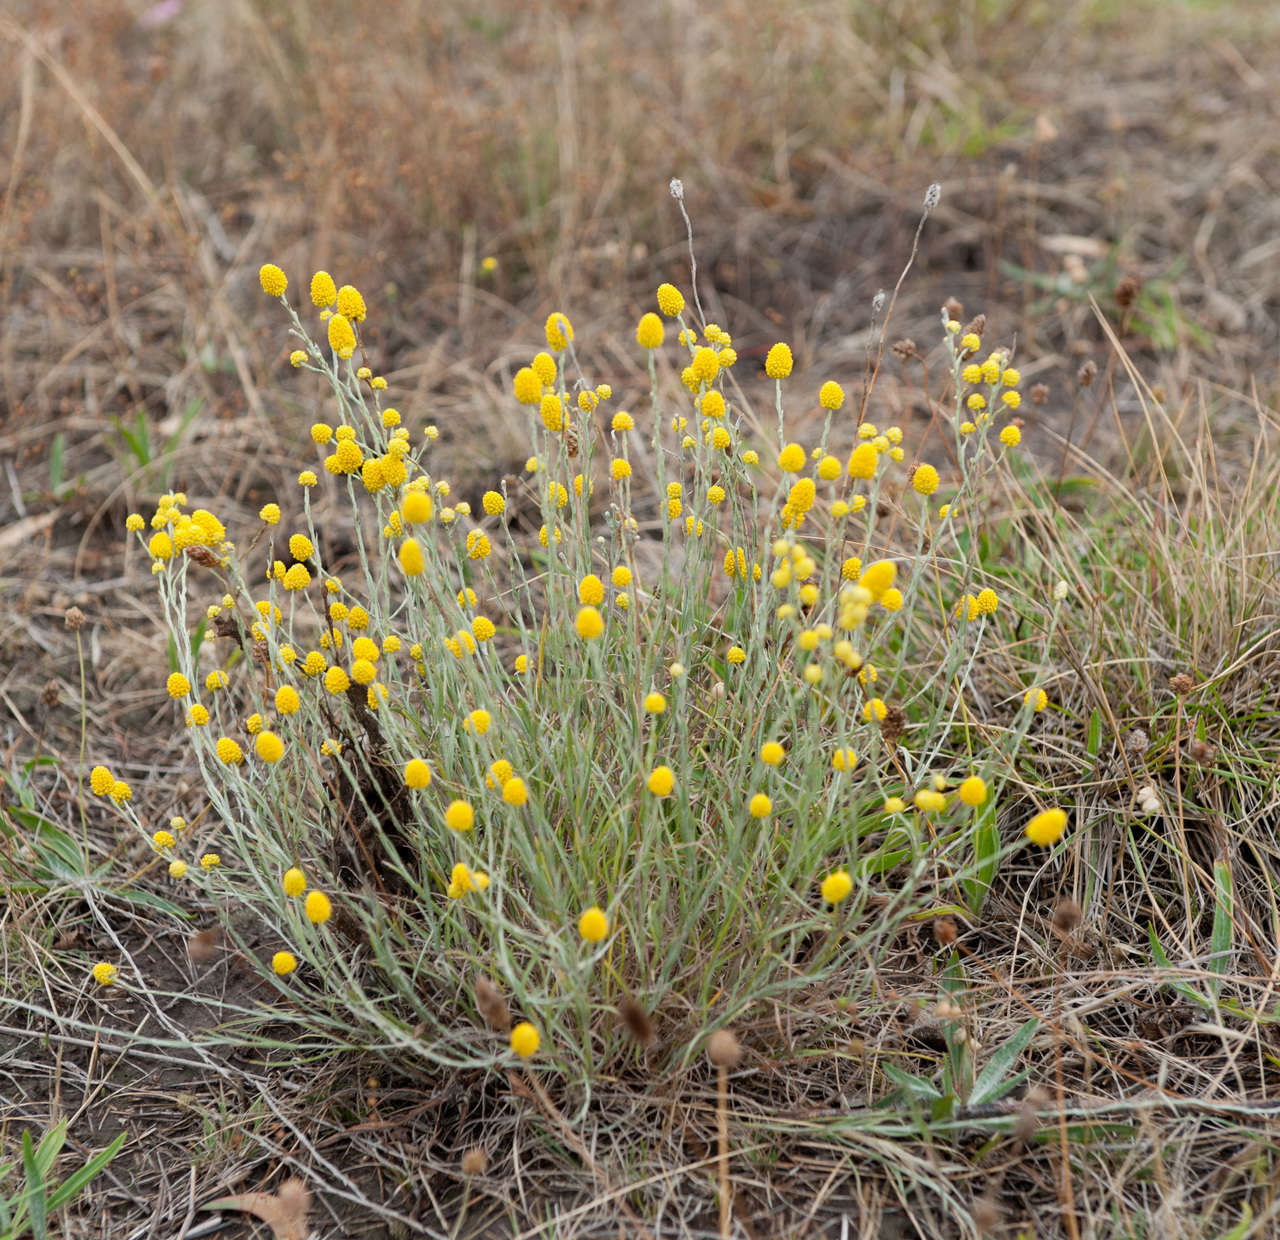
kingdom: Plantae
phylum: Tracheophyta
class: Magnoliopsida
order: Asterales
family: Asteraceae
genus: Calocephalus
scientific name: Calocephalus citreus
